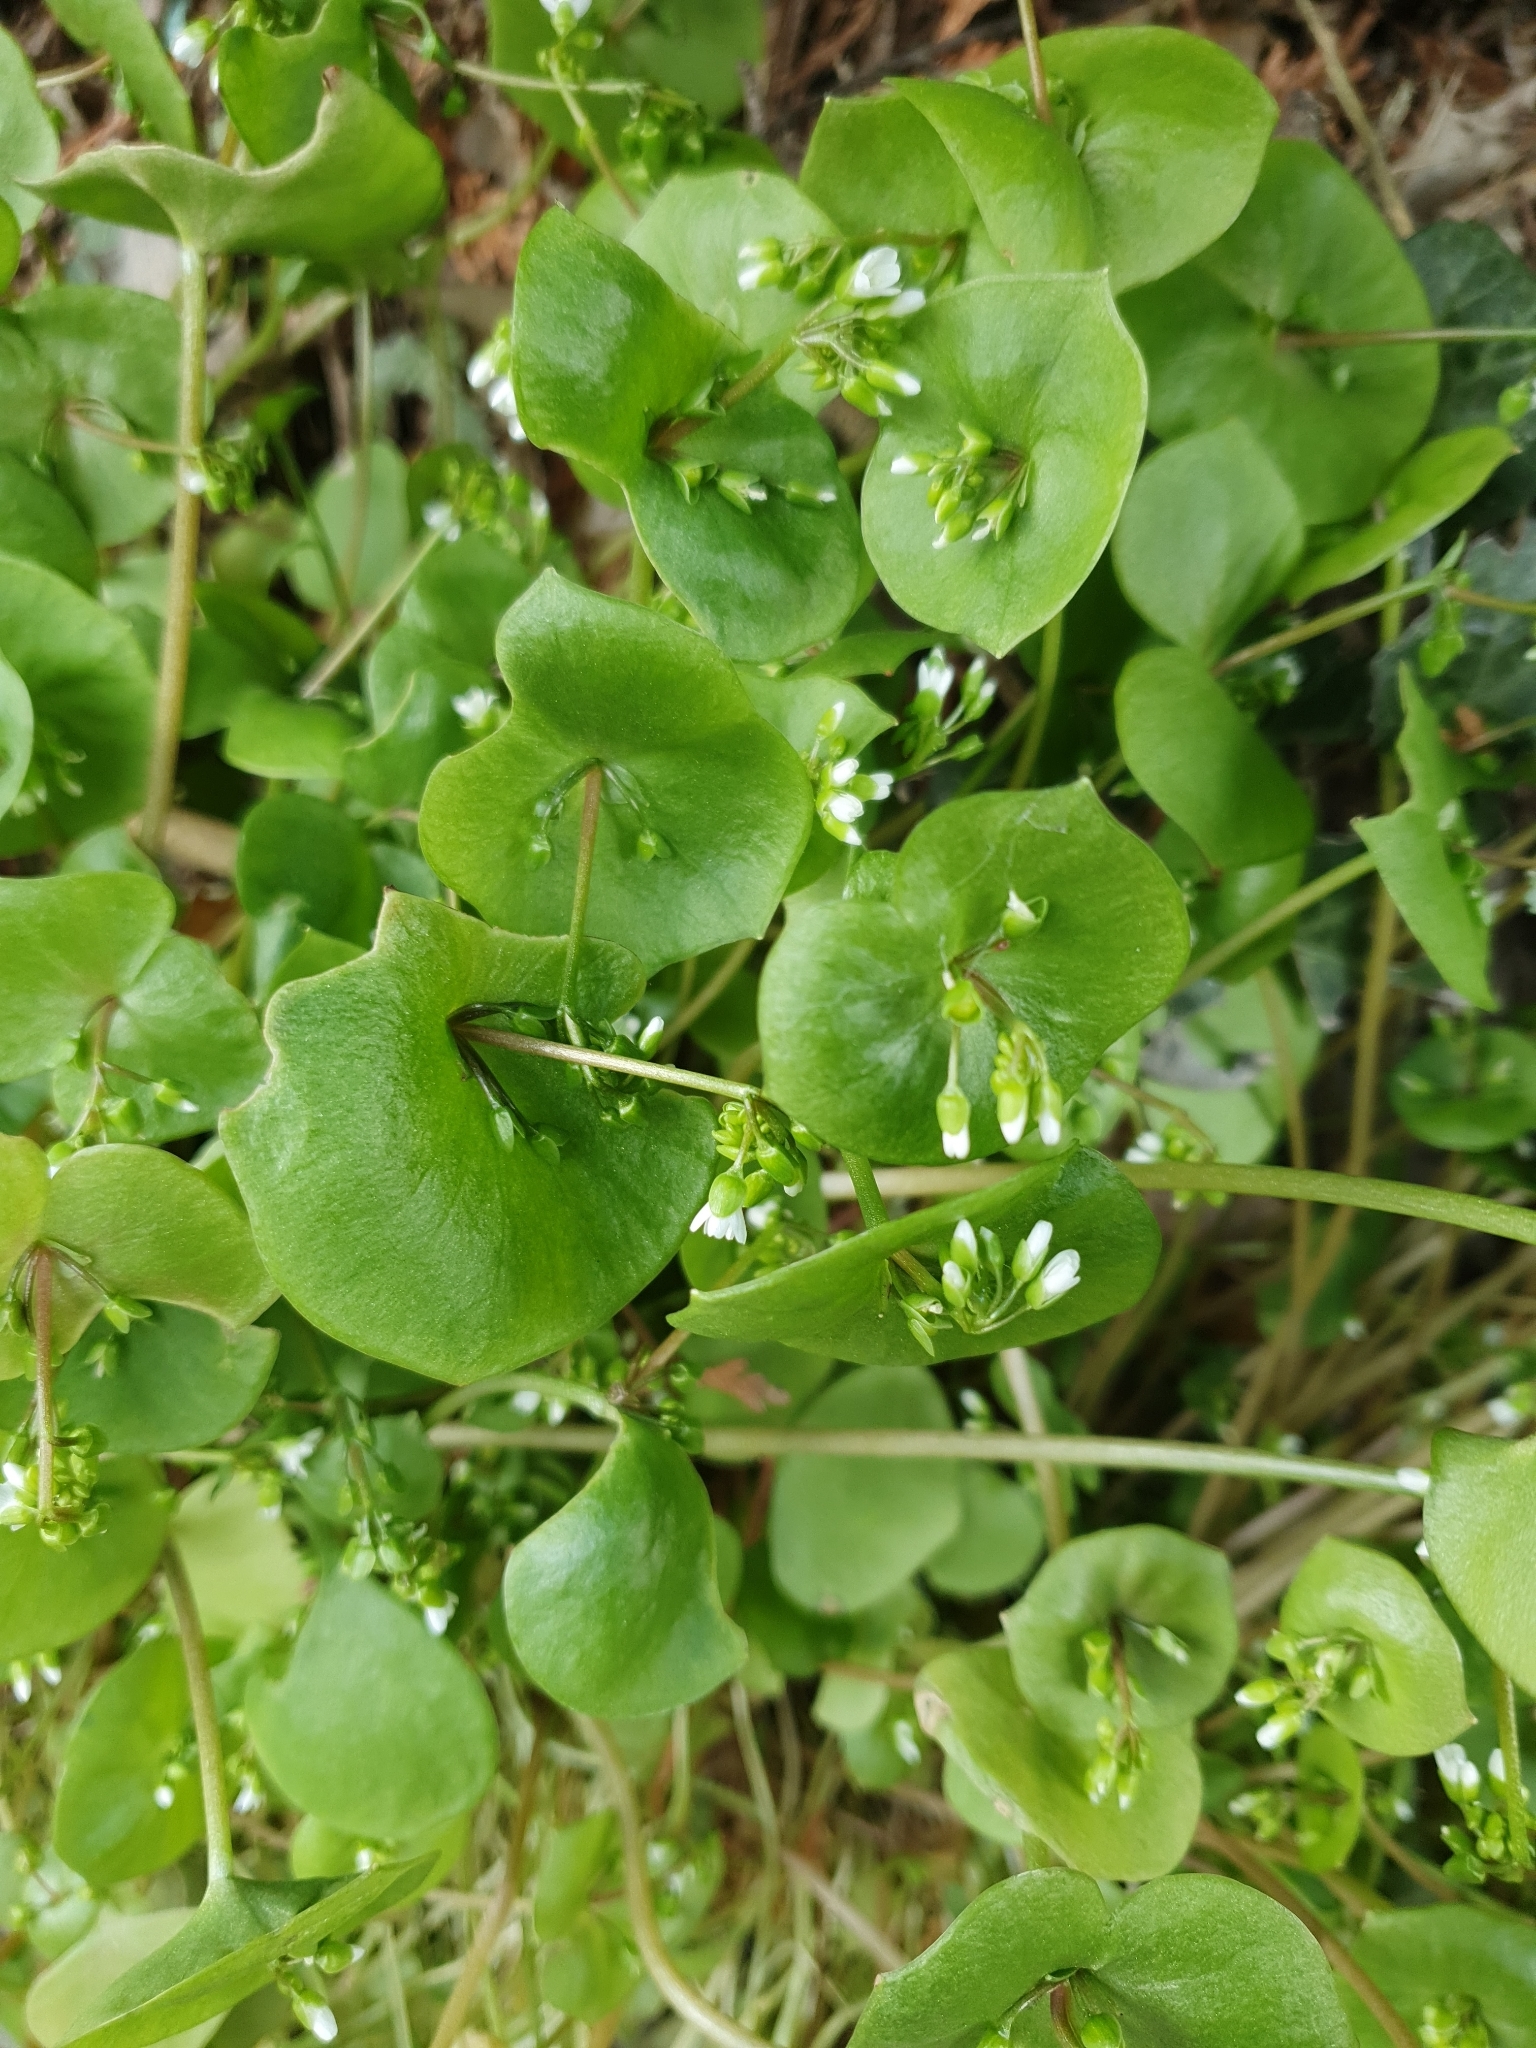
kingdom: Plantae
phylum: Tracheophyta
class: Magnoliopsida
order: Caryophyllales
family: Montiaceae
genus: Claytonia
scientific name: Claytonia perfoliata
